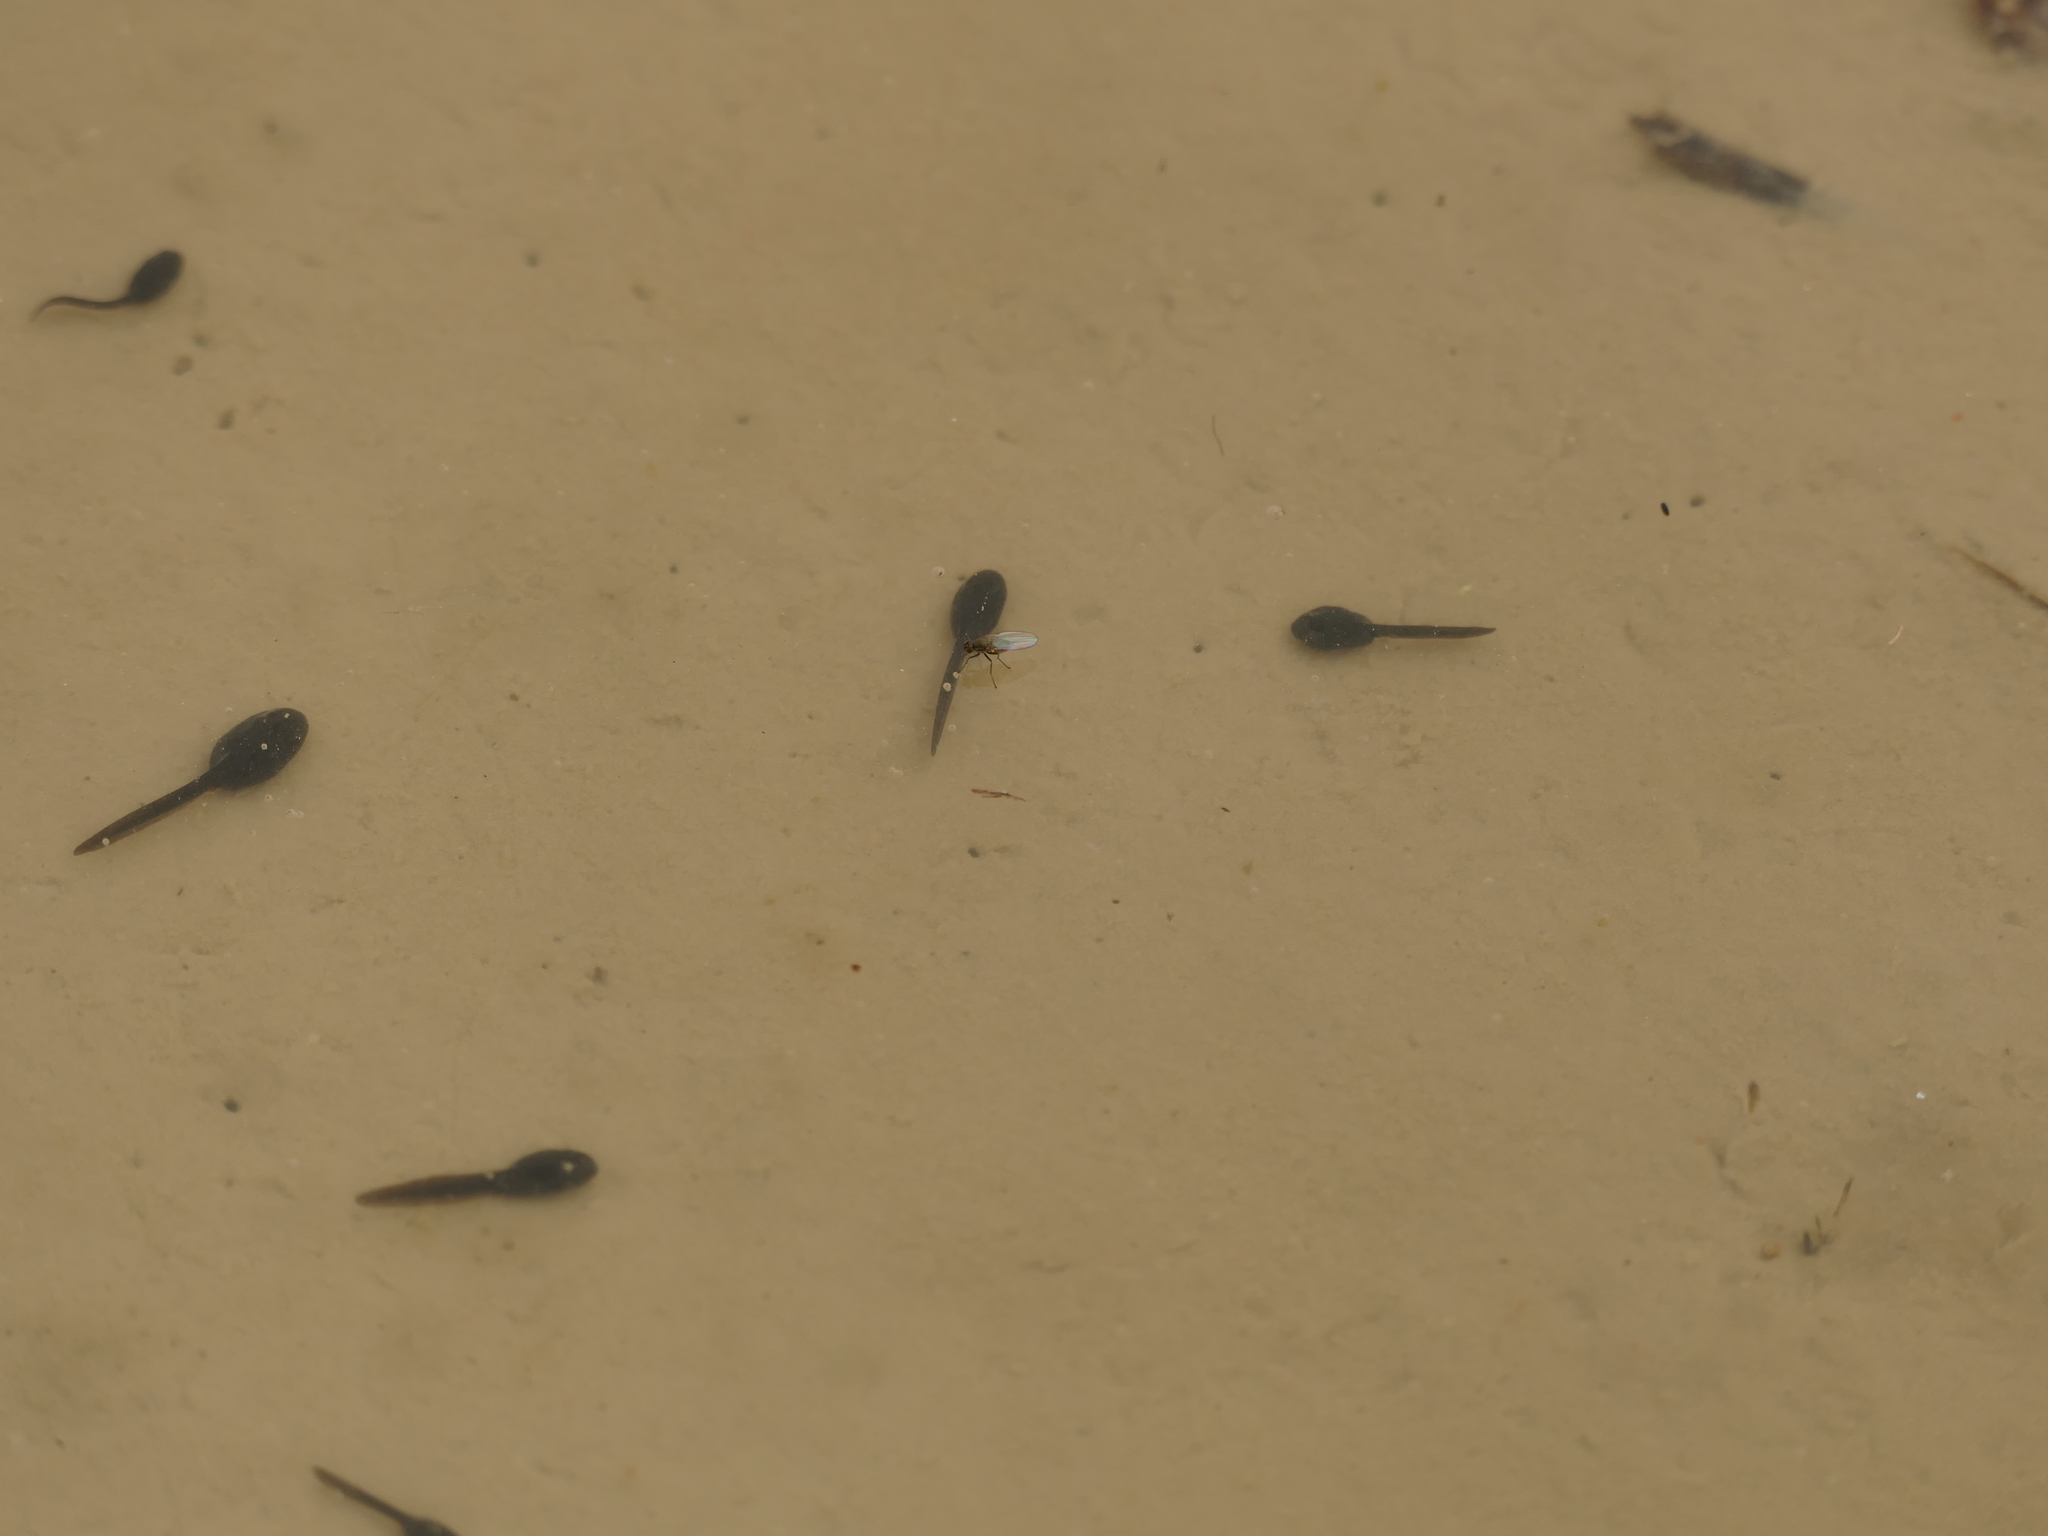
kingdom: Animalia
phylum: Chordata
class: Amphibia
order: Anura
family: Bufonidae
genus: Epidalea
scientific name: Epidalea calamita
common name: Natterjack toad
